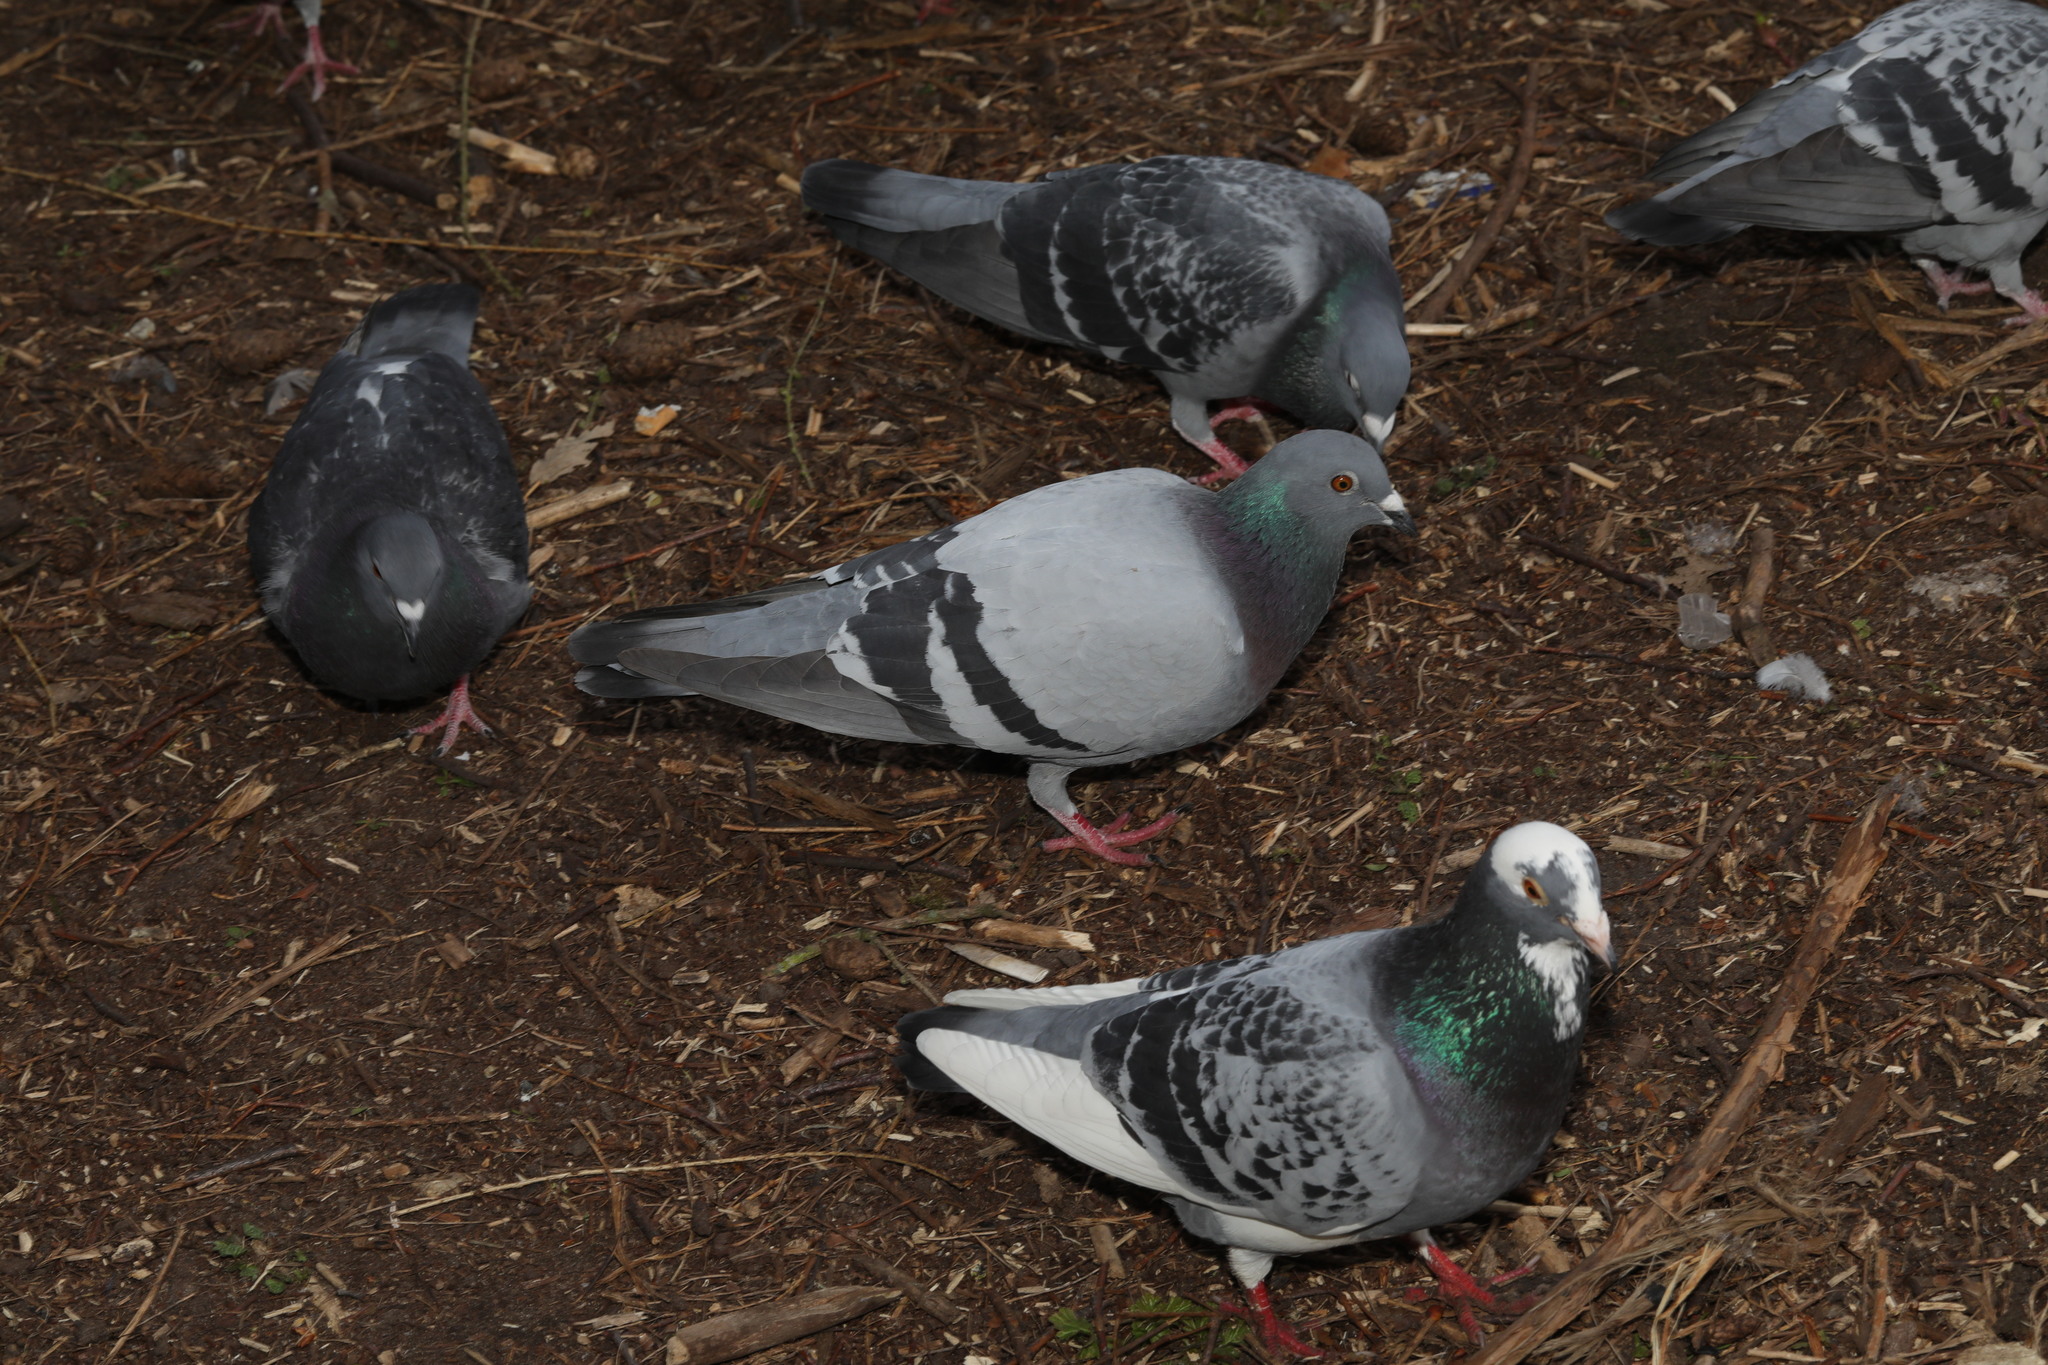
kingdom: Animalia
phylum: Chordata
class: Aves
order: Columbiformes
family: Columbidae
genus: Columba
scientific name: Columba livia
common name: Rock pigeon
